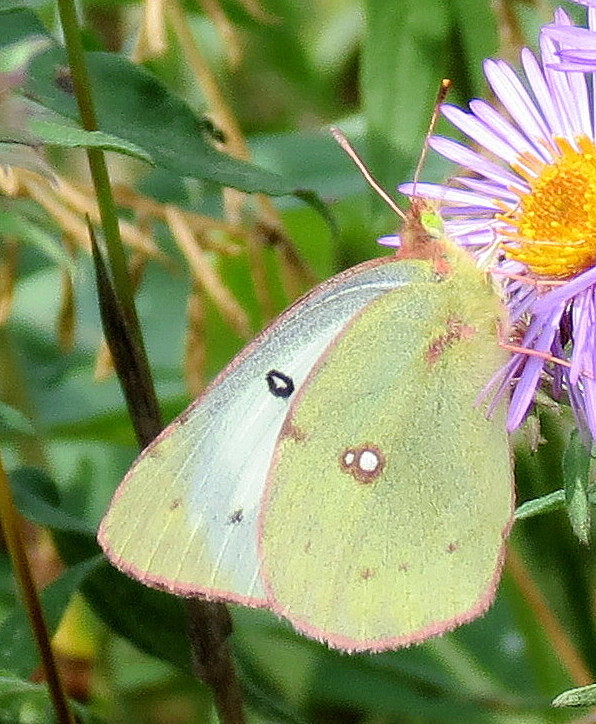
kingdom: Animalia
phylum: Arthropoda
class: Insecta
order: Lepidoptera
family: Pieridae
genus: Colias
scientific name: Colias philodice
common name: Clouded sulphur
